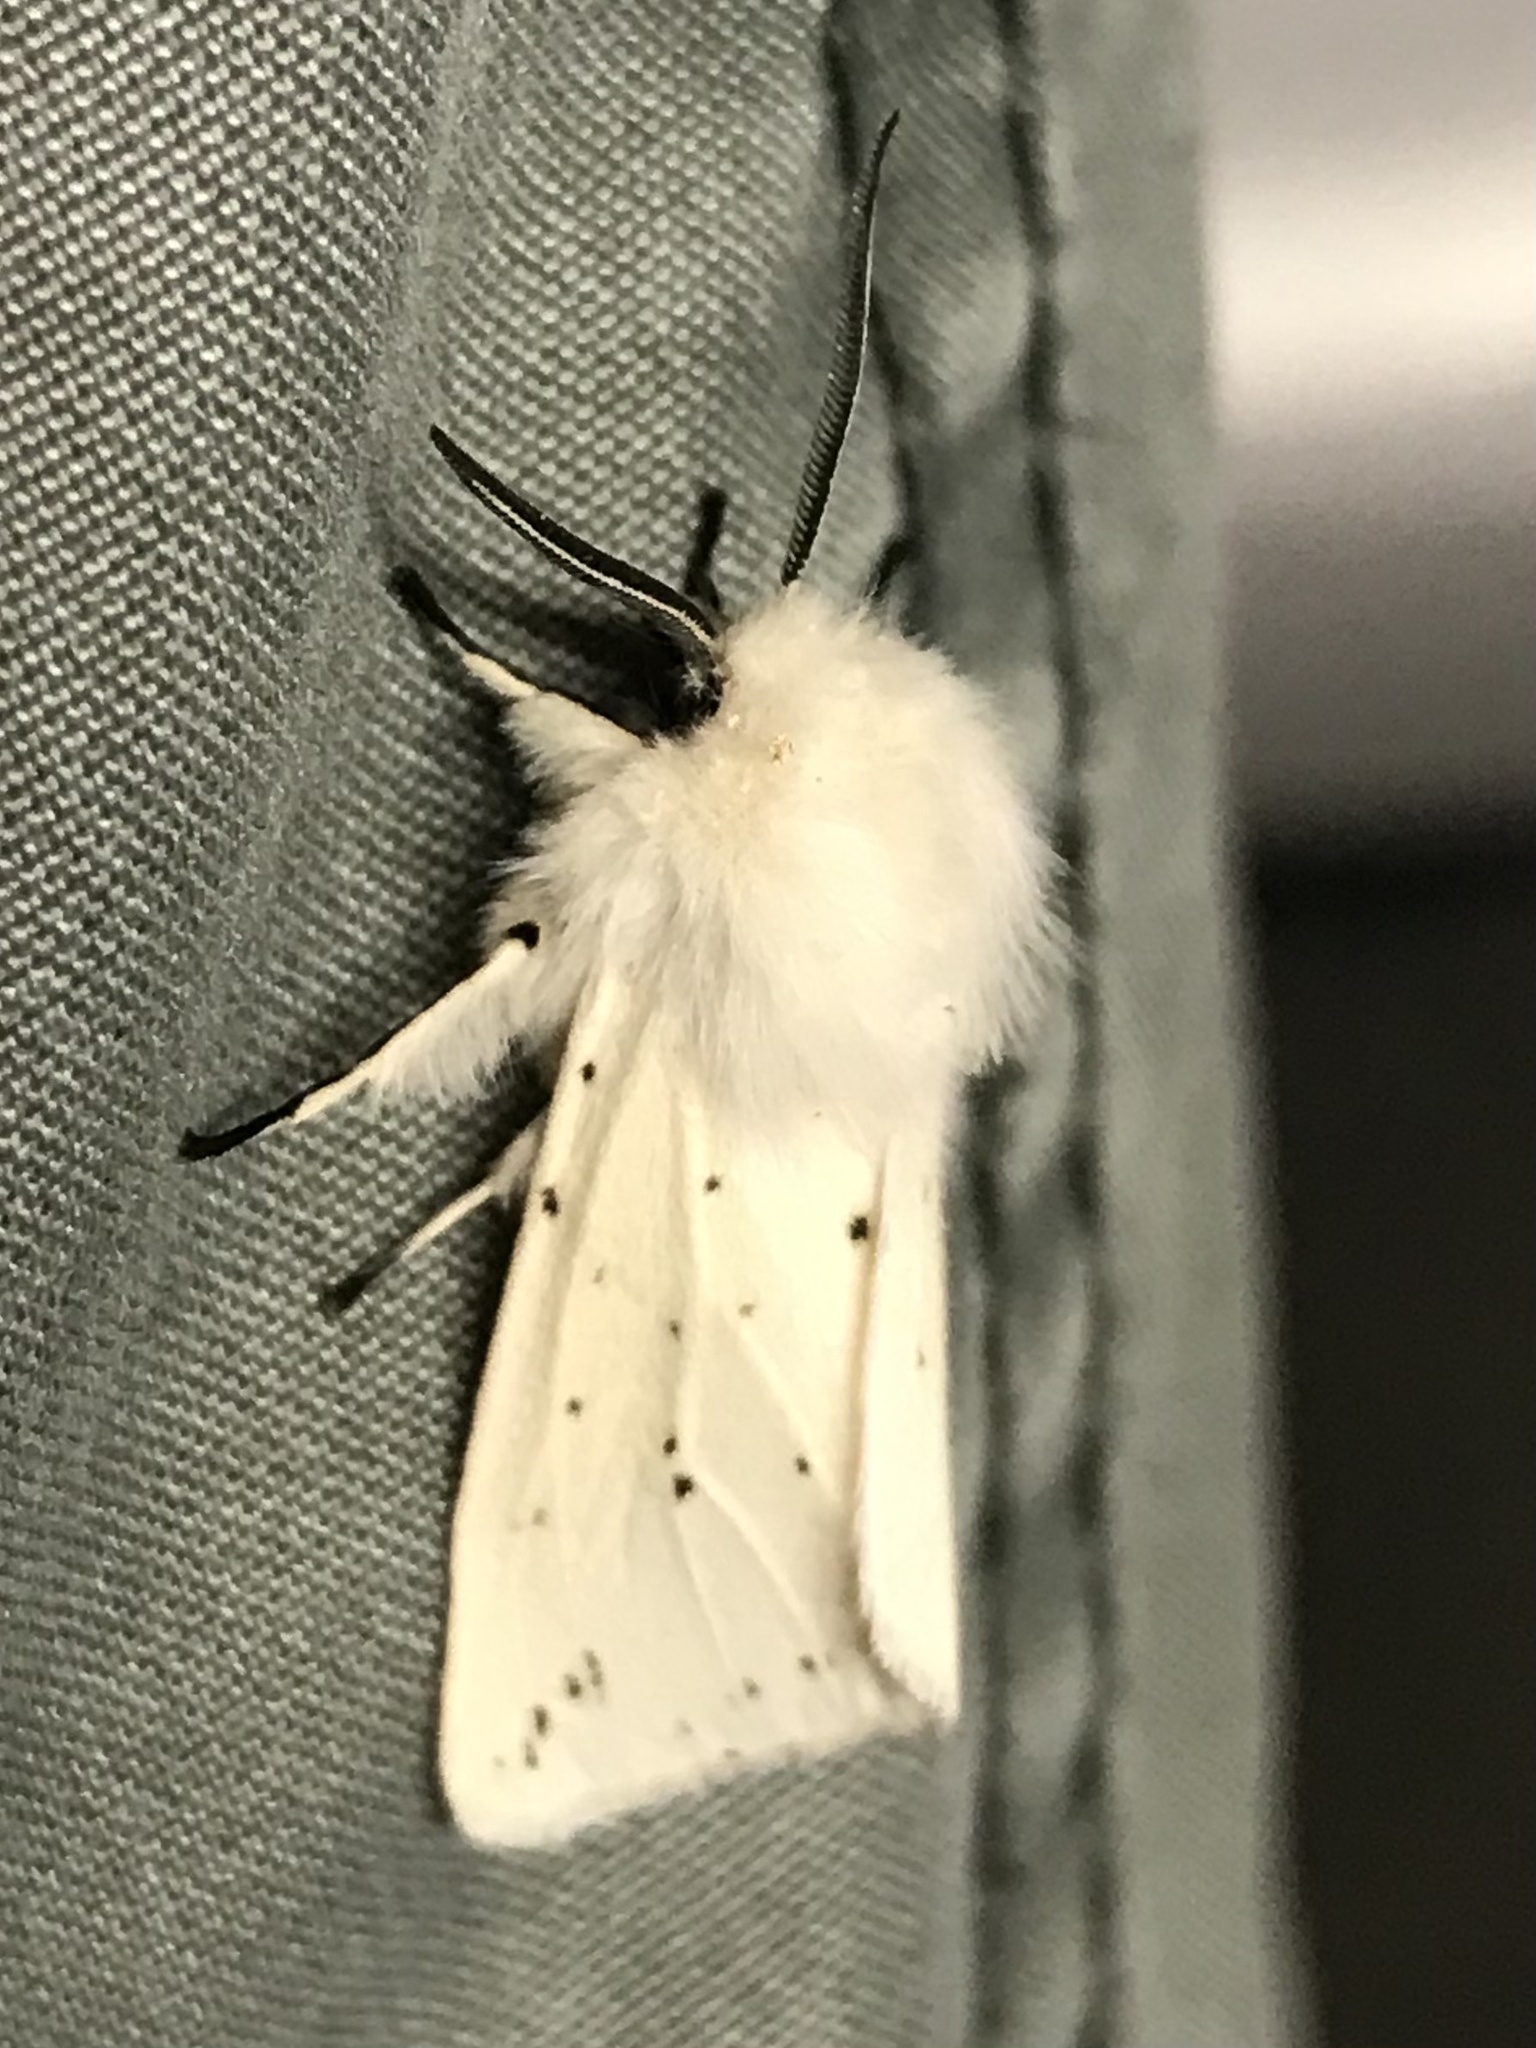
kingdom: Animalia
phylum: Arthropoda
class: Insecta
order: Lepidoptera
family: Erebidae
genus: Spilosoma
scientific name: Spilosoma lubricipeda
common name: White ermine
